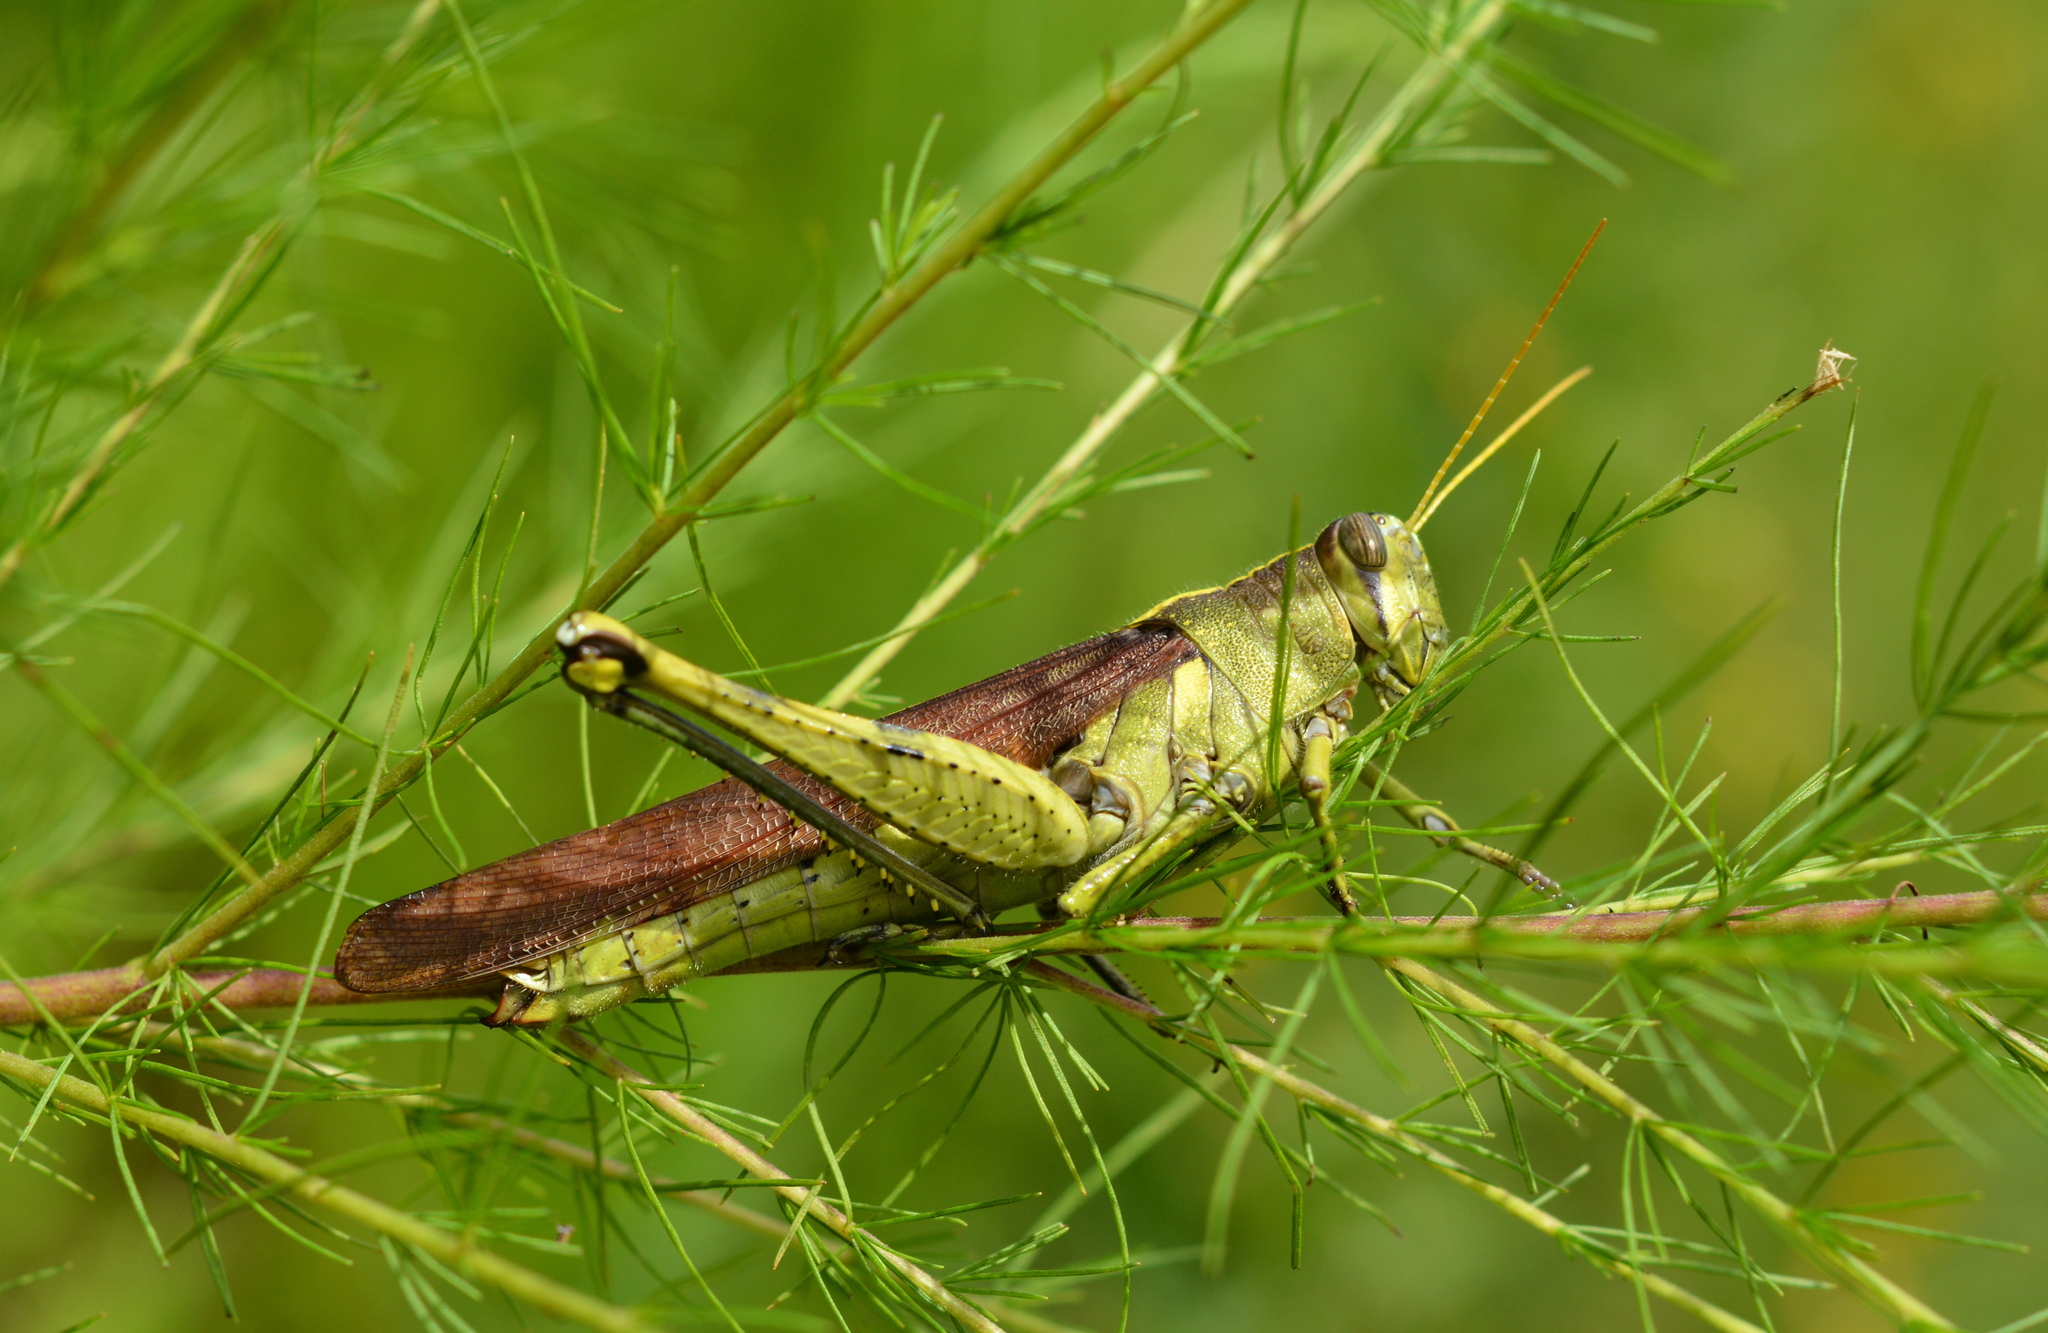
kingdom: Animalia
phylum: Arthropoda
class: Insecta
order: Orthoptera
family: Acrididae
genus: Schistocerca
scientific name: Schistocerca obscura
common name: Obscure bird grasshopper
